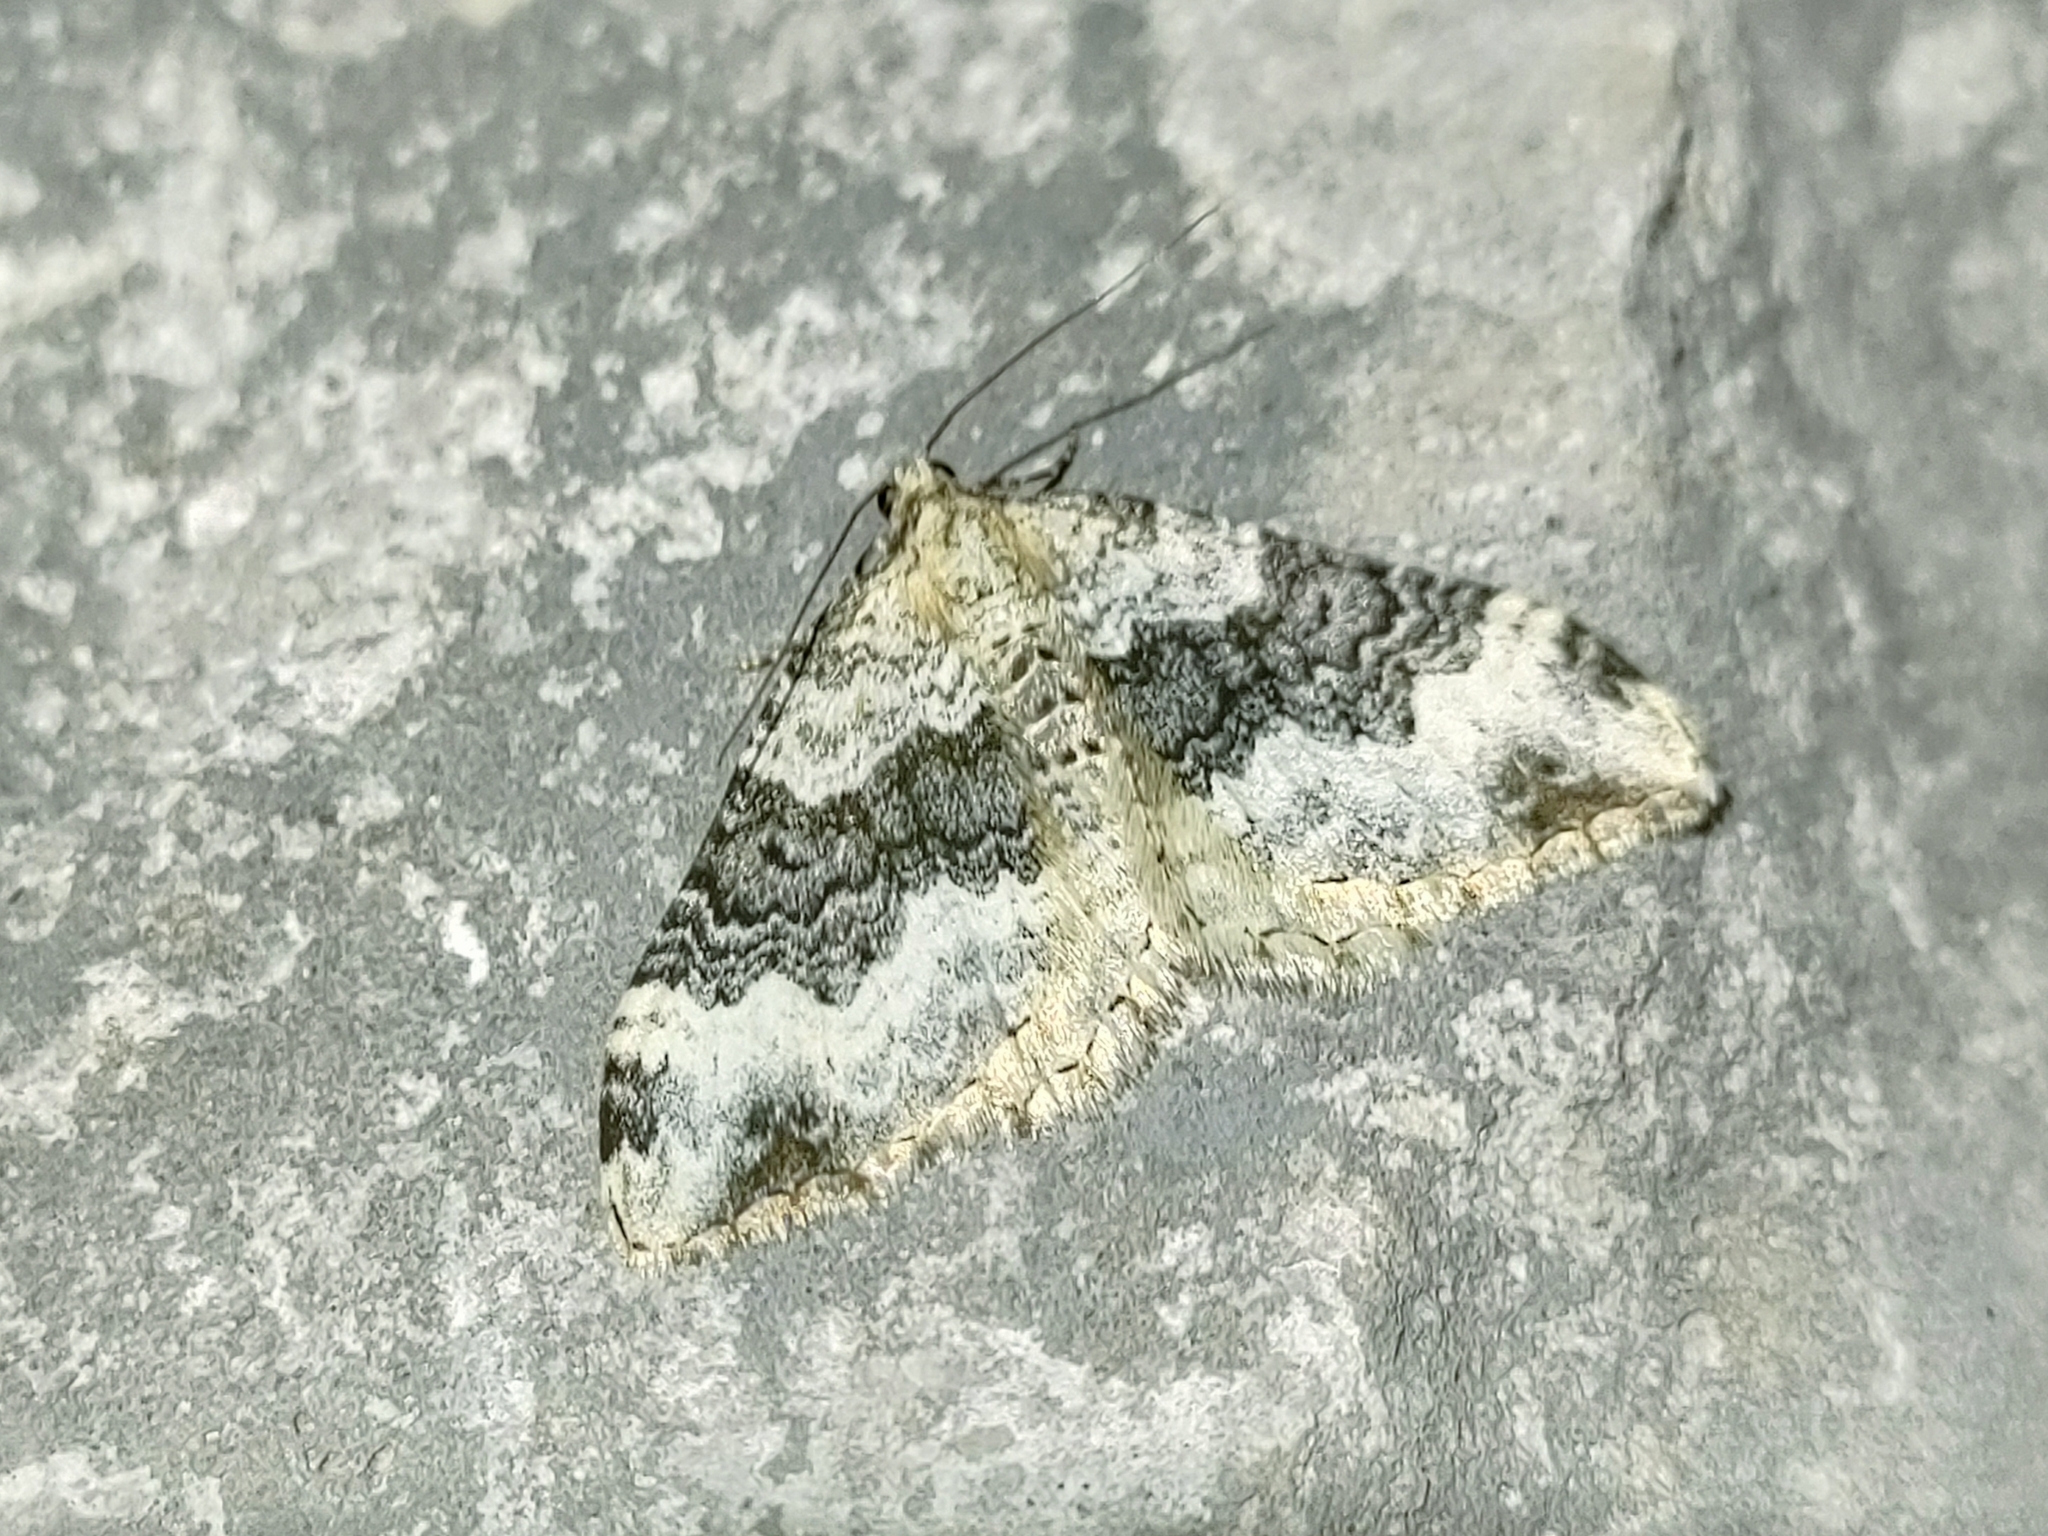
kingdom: Animalia
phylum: Arthropoda
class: Insecta
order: Lepidoptera
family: Geometridae
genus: Epirrhoe
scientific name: Epirrhoe galiata
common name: Galium carpet
